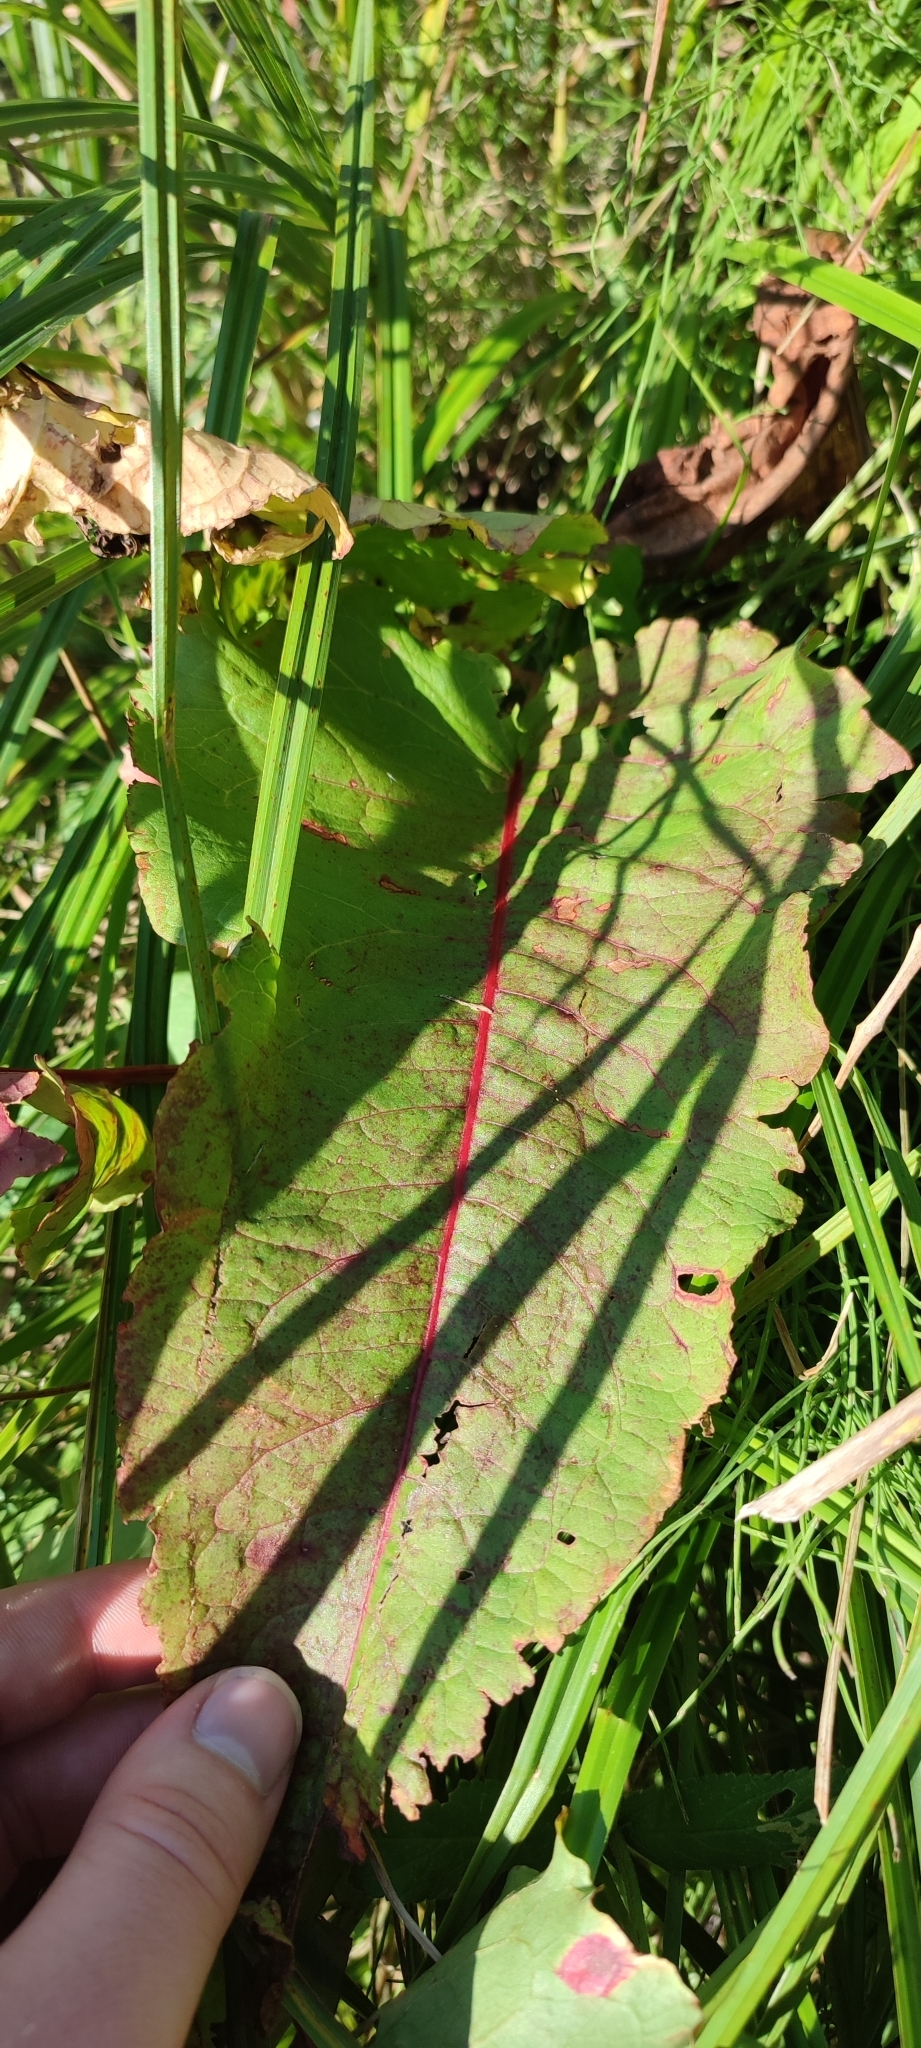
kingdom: Plantae
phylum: Tracheophyta
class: Magnoliopsida
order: Caryophyllales
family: Polygonaceae
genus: Rumex
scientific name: Rumex aquaticus
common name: Scottish dock
